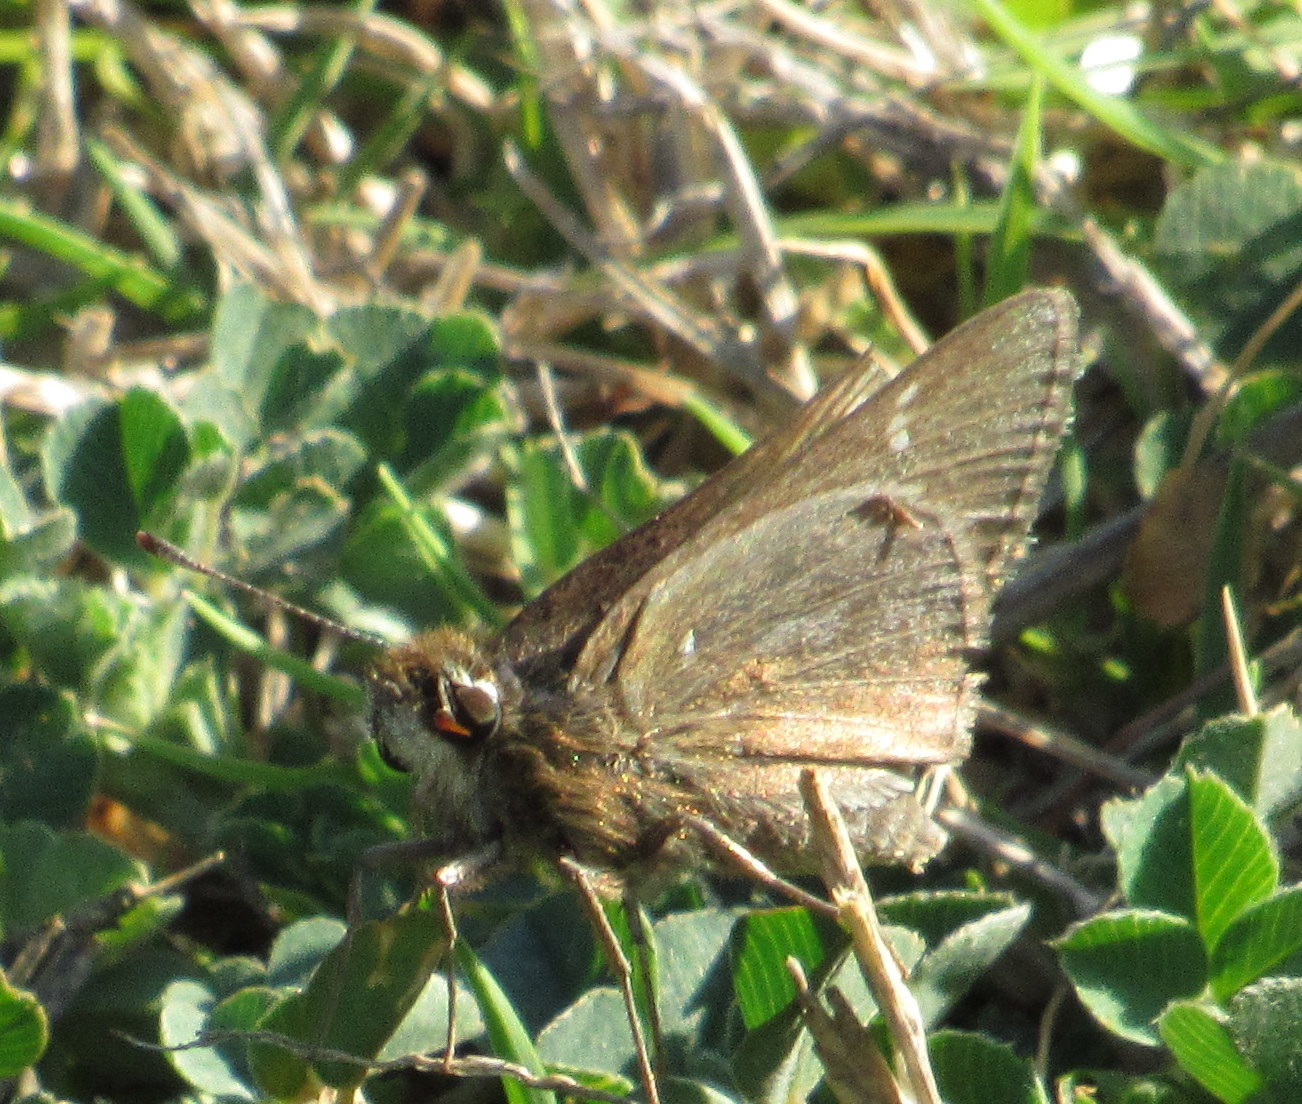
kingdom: Animalia
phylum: Arthropoda
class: Insecta
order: Lepidoptera
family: Hesperiidae
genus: Lerodea
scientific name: Lerodea eufala
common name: Eufala skipper
